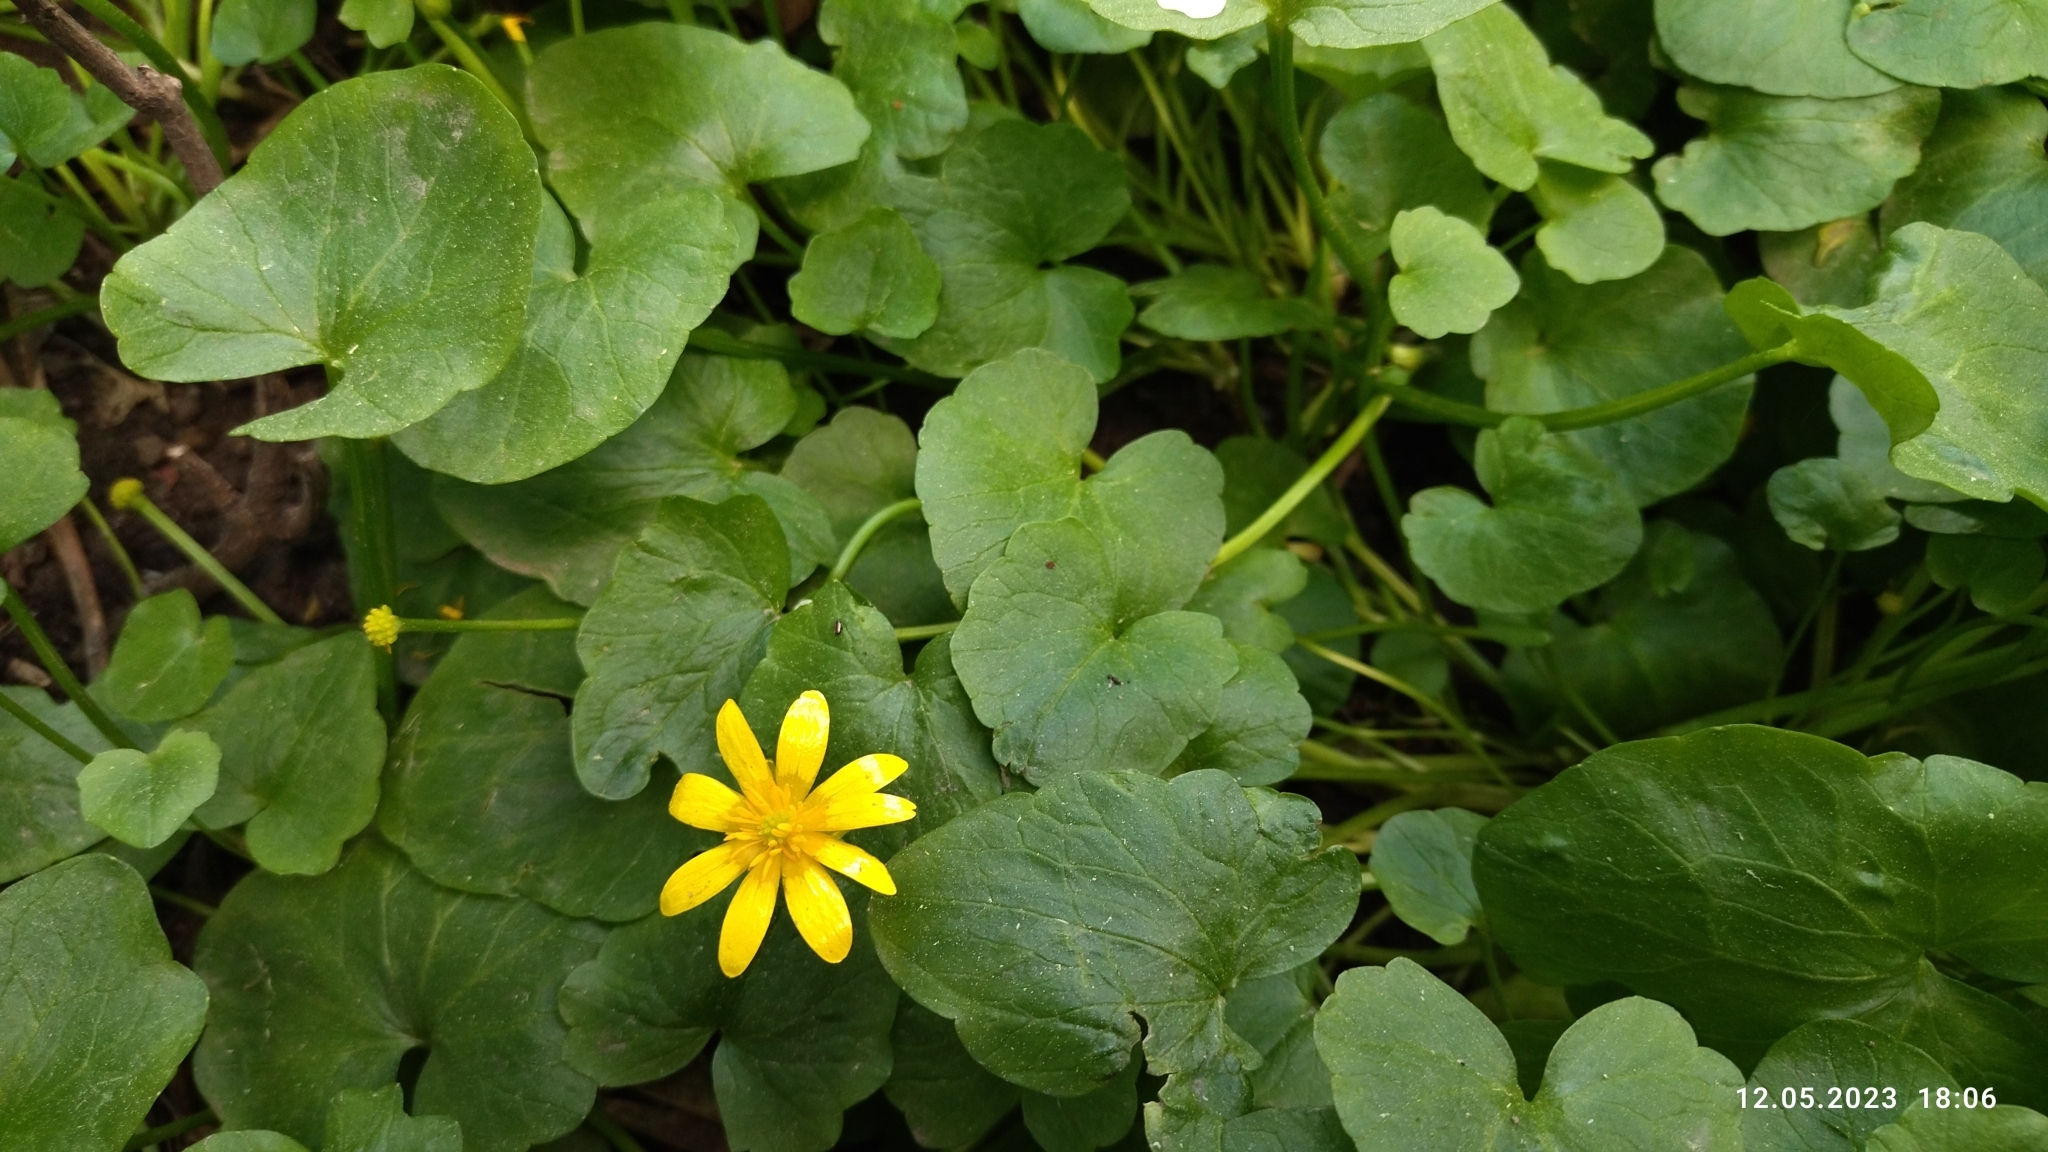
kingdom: Plantae
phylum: Tracheophyta
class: Magnoliopsida
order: Ranunculales
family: Ranunculaceae
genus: Ficaria
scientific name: Ficaria verna
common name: Lesser celandine
